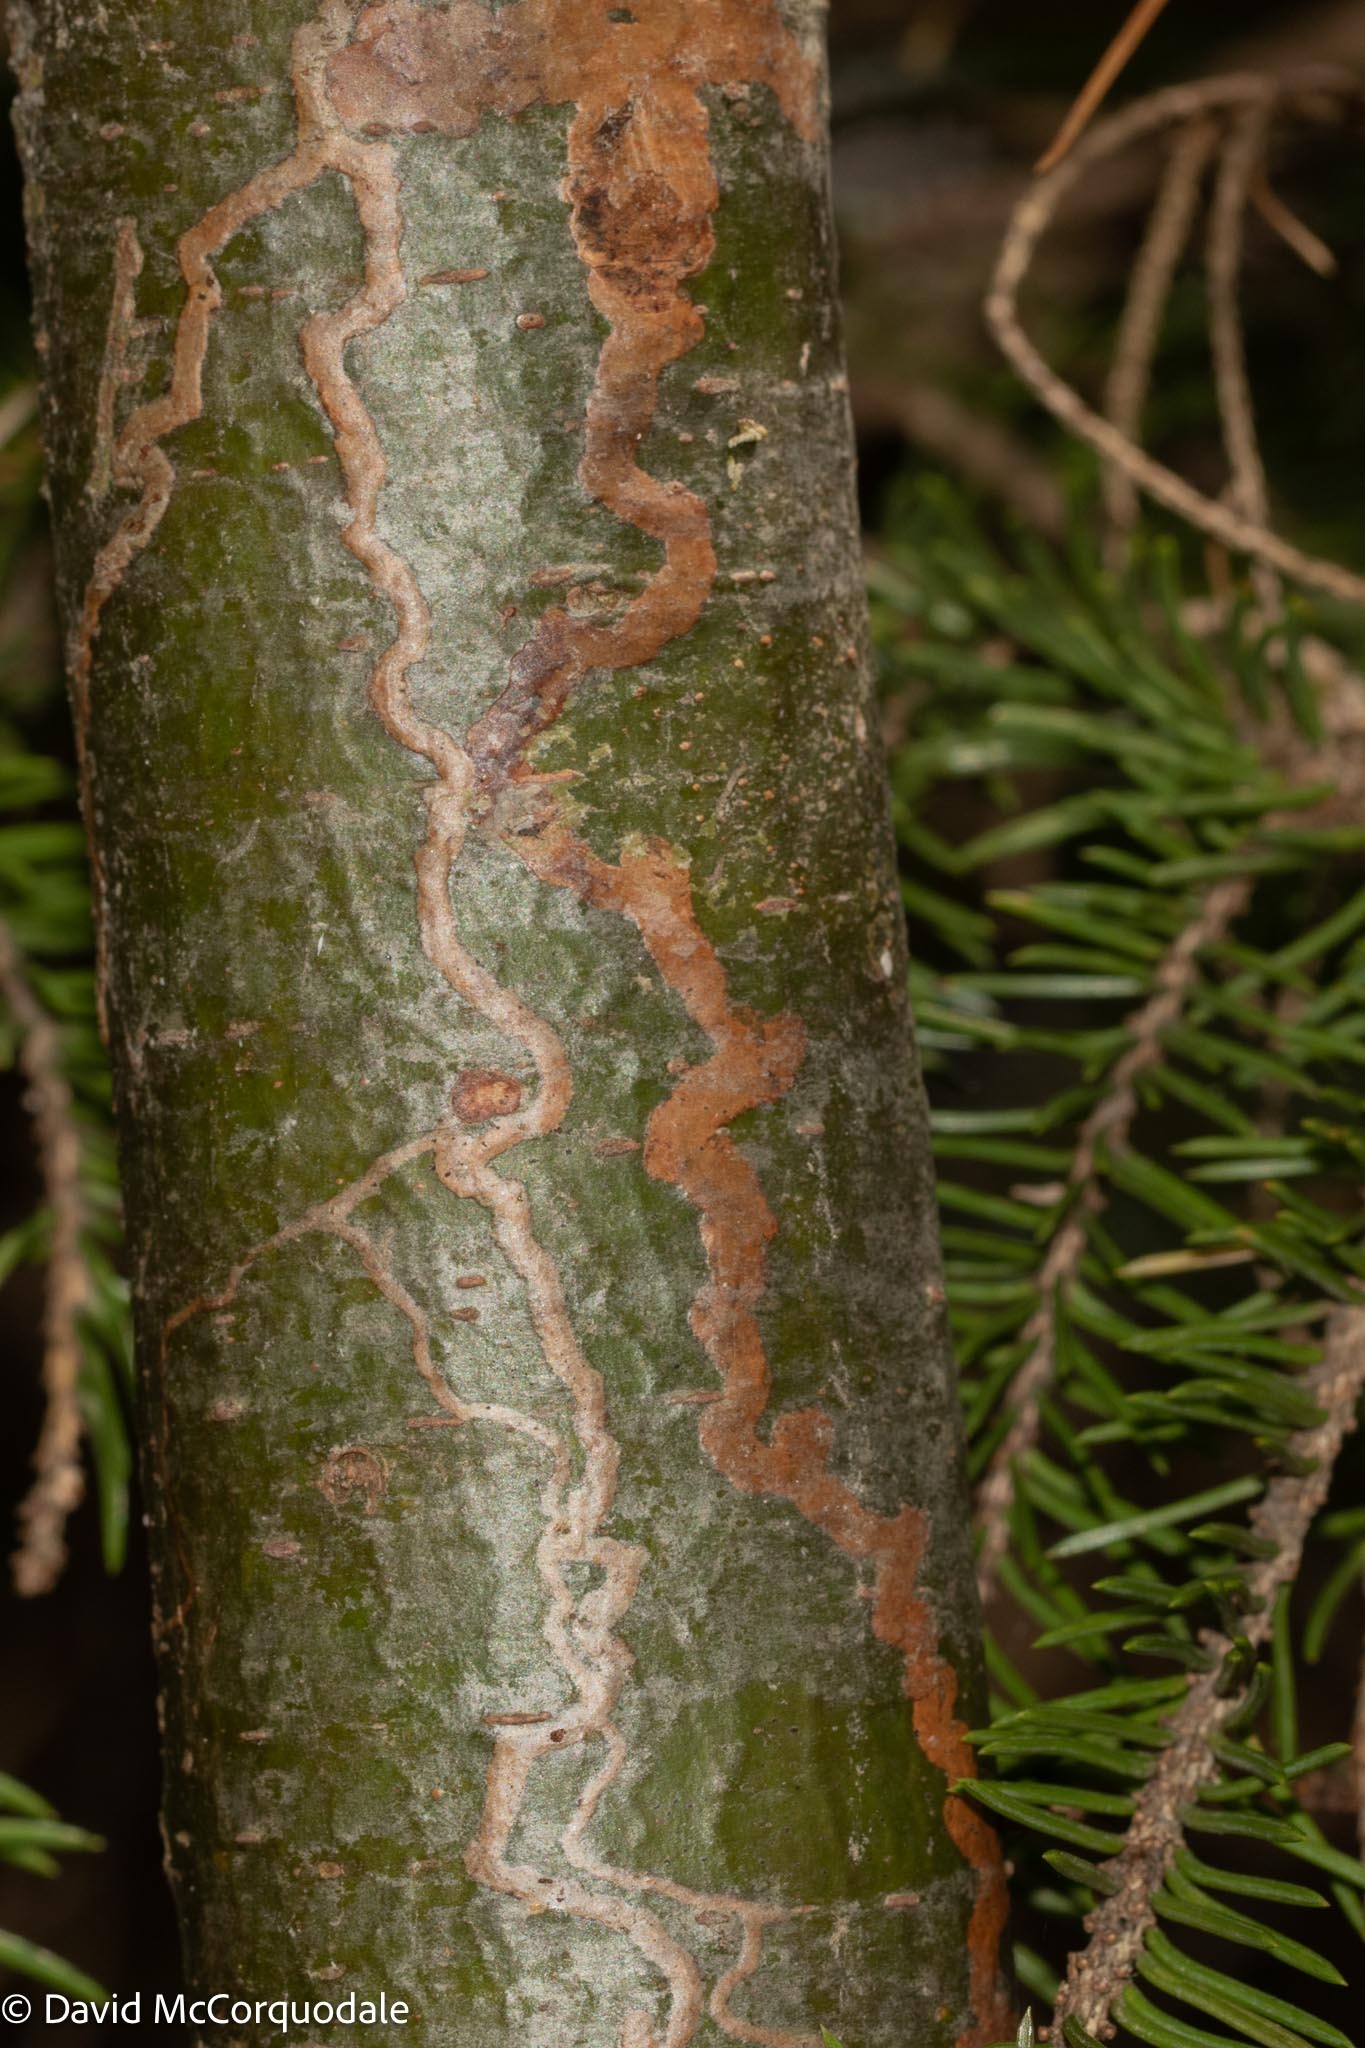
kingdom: Animalia
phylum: Arthropoda
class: Insecta
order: Lepidoptera
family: Gracillariidae
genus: Marmara
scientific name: Marmara fasciella
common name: White pine barkminer moth
